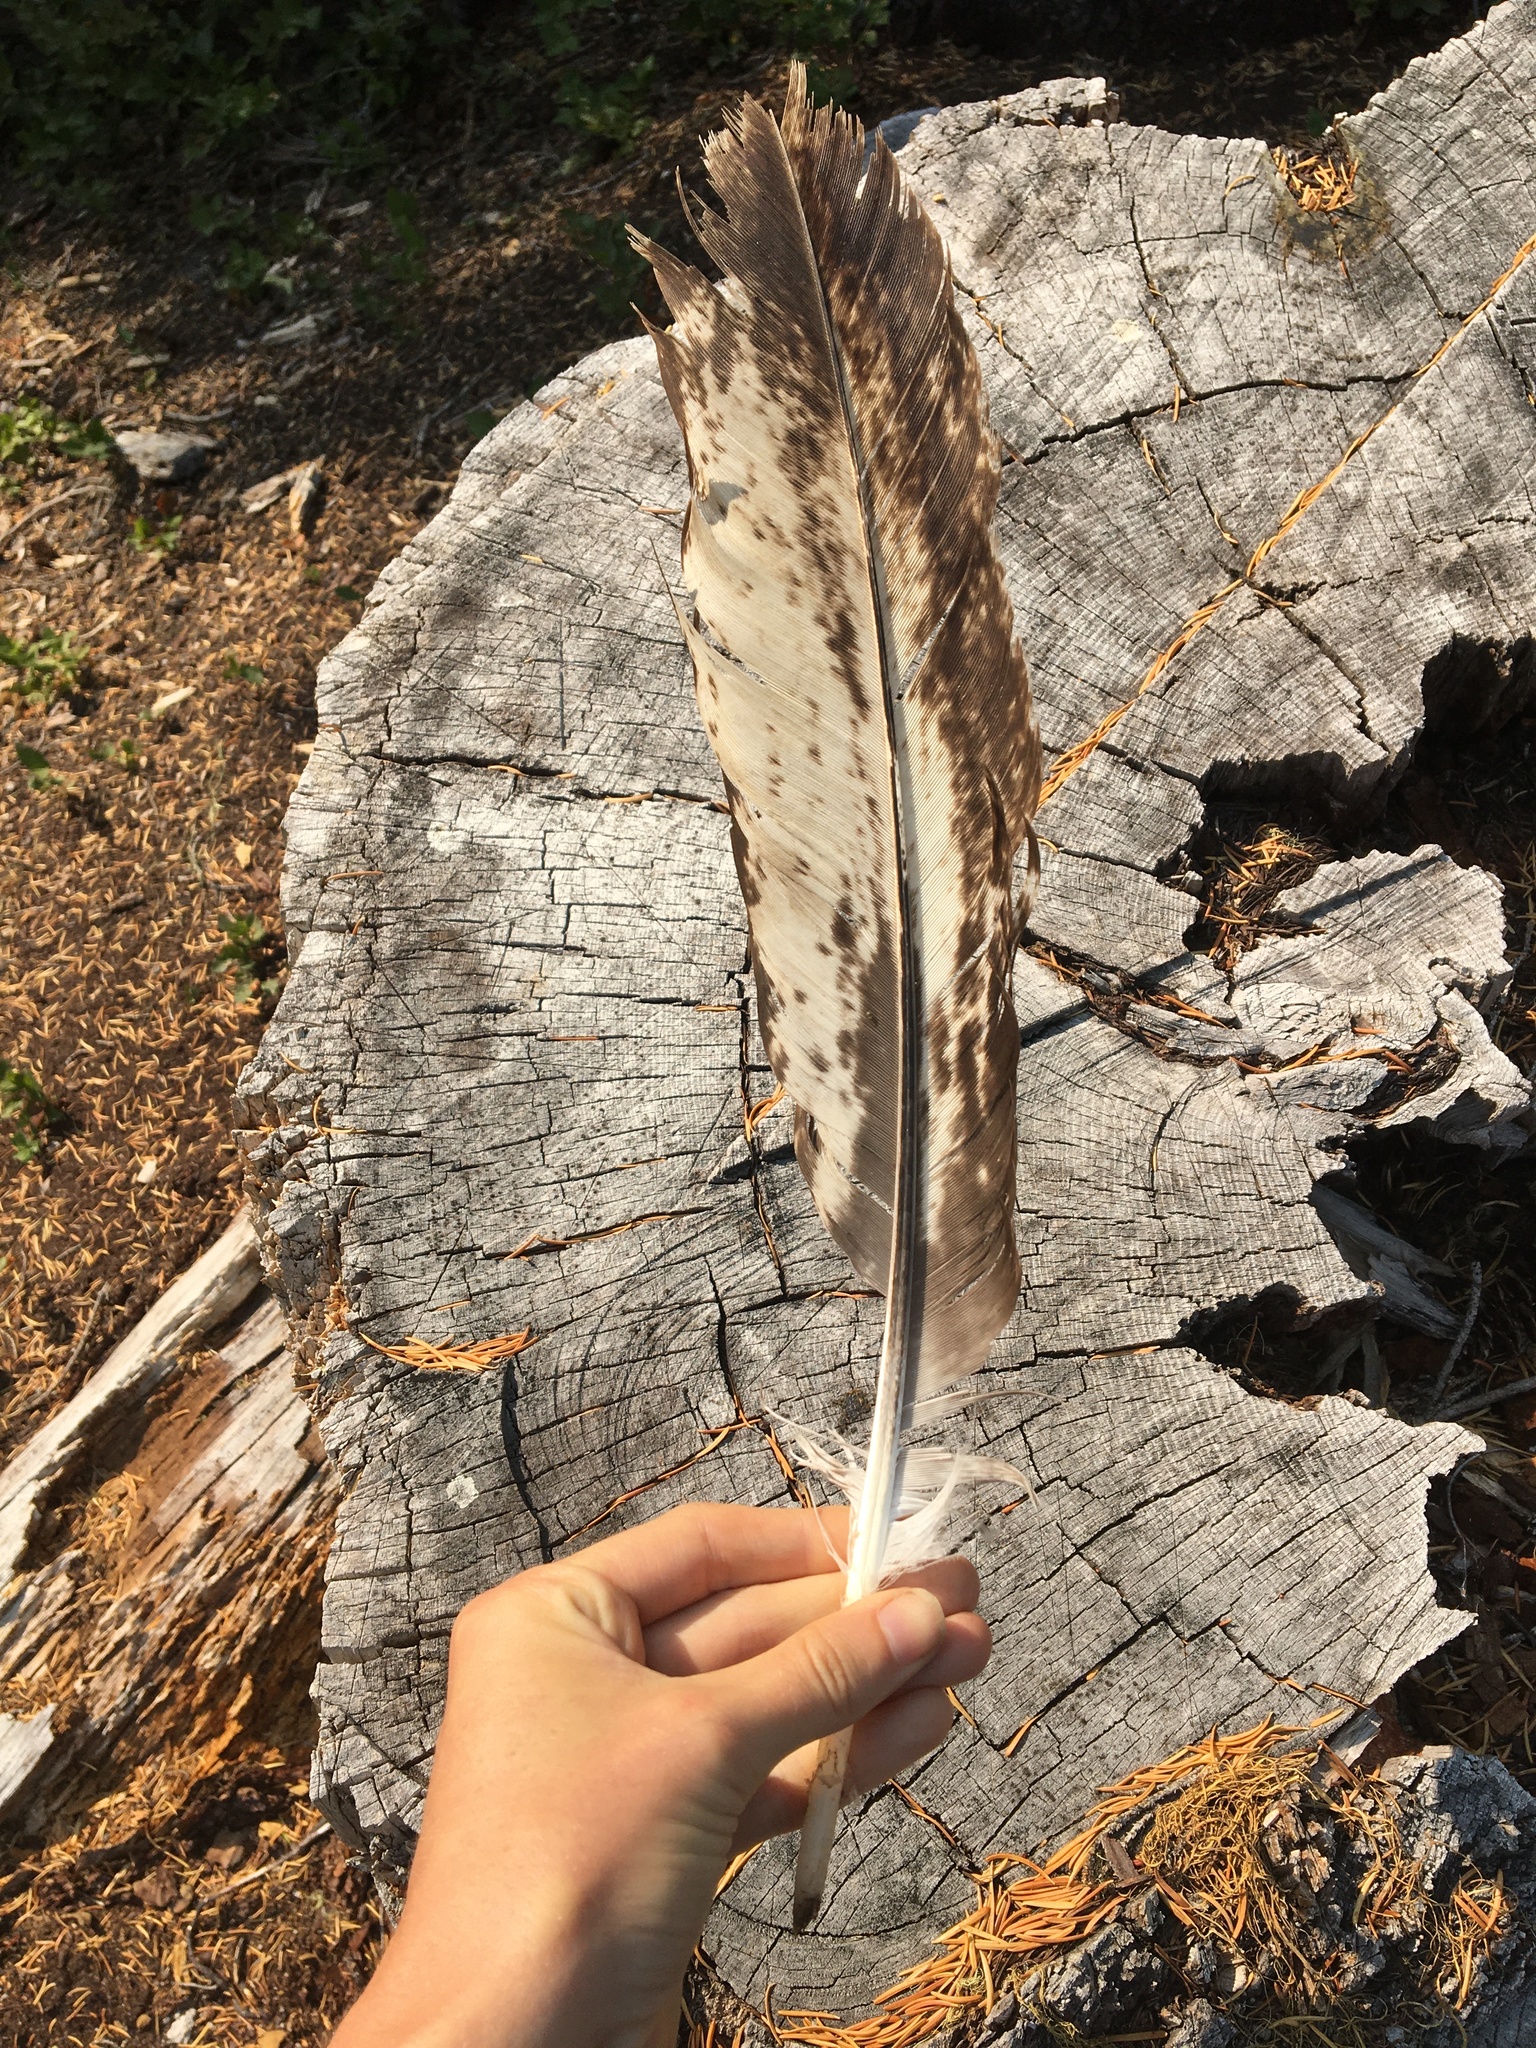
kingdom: Animalia
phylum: Chordata
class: Aves
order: Accipitriformes
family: Accipitridae
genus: Haliaeetus
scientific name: Haliaeetus leucocephalus
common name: Bald eagle
